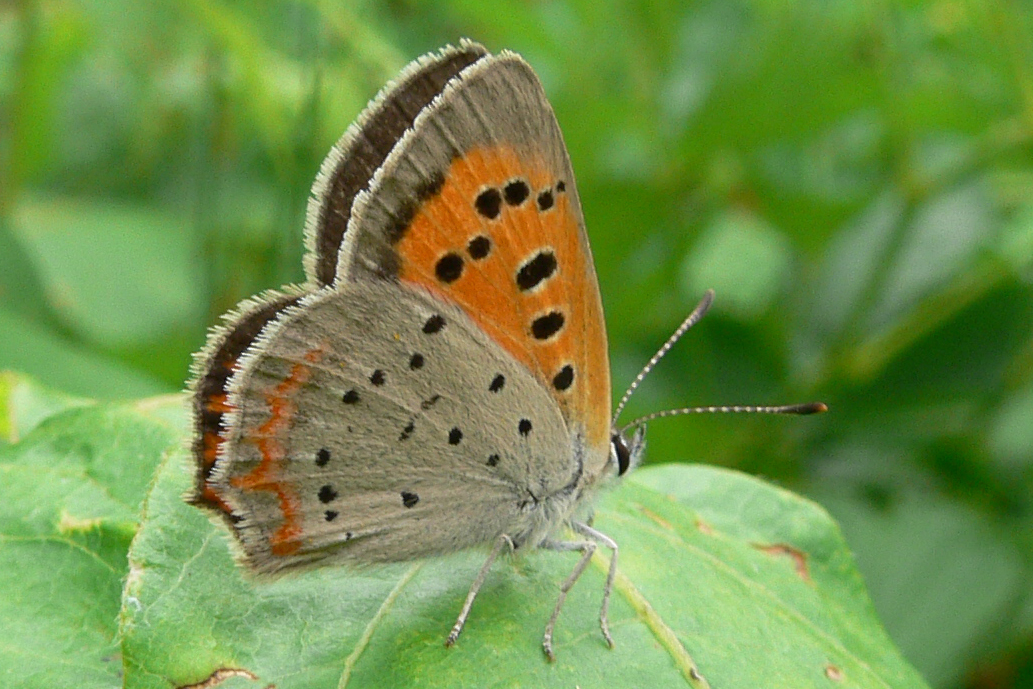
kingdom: Animalia
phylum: Arthropoda
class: Insecta
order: Lepidoptera
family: Lycaenidae
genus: Lycaena
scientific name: Lycaena hypophlaeas
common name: American copper
